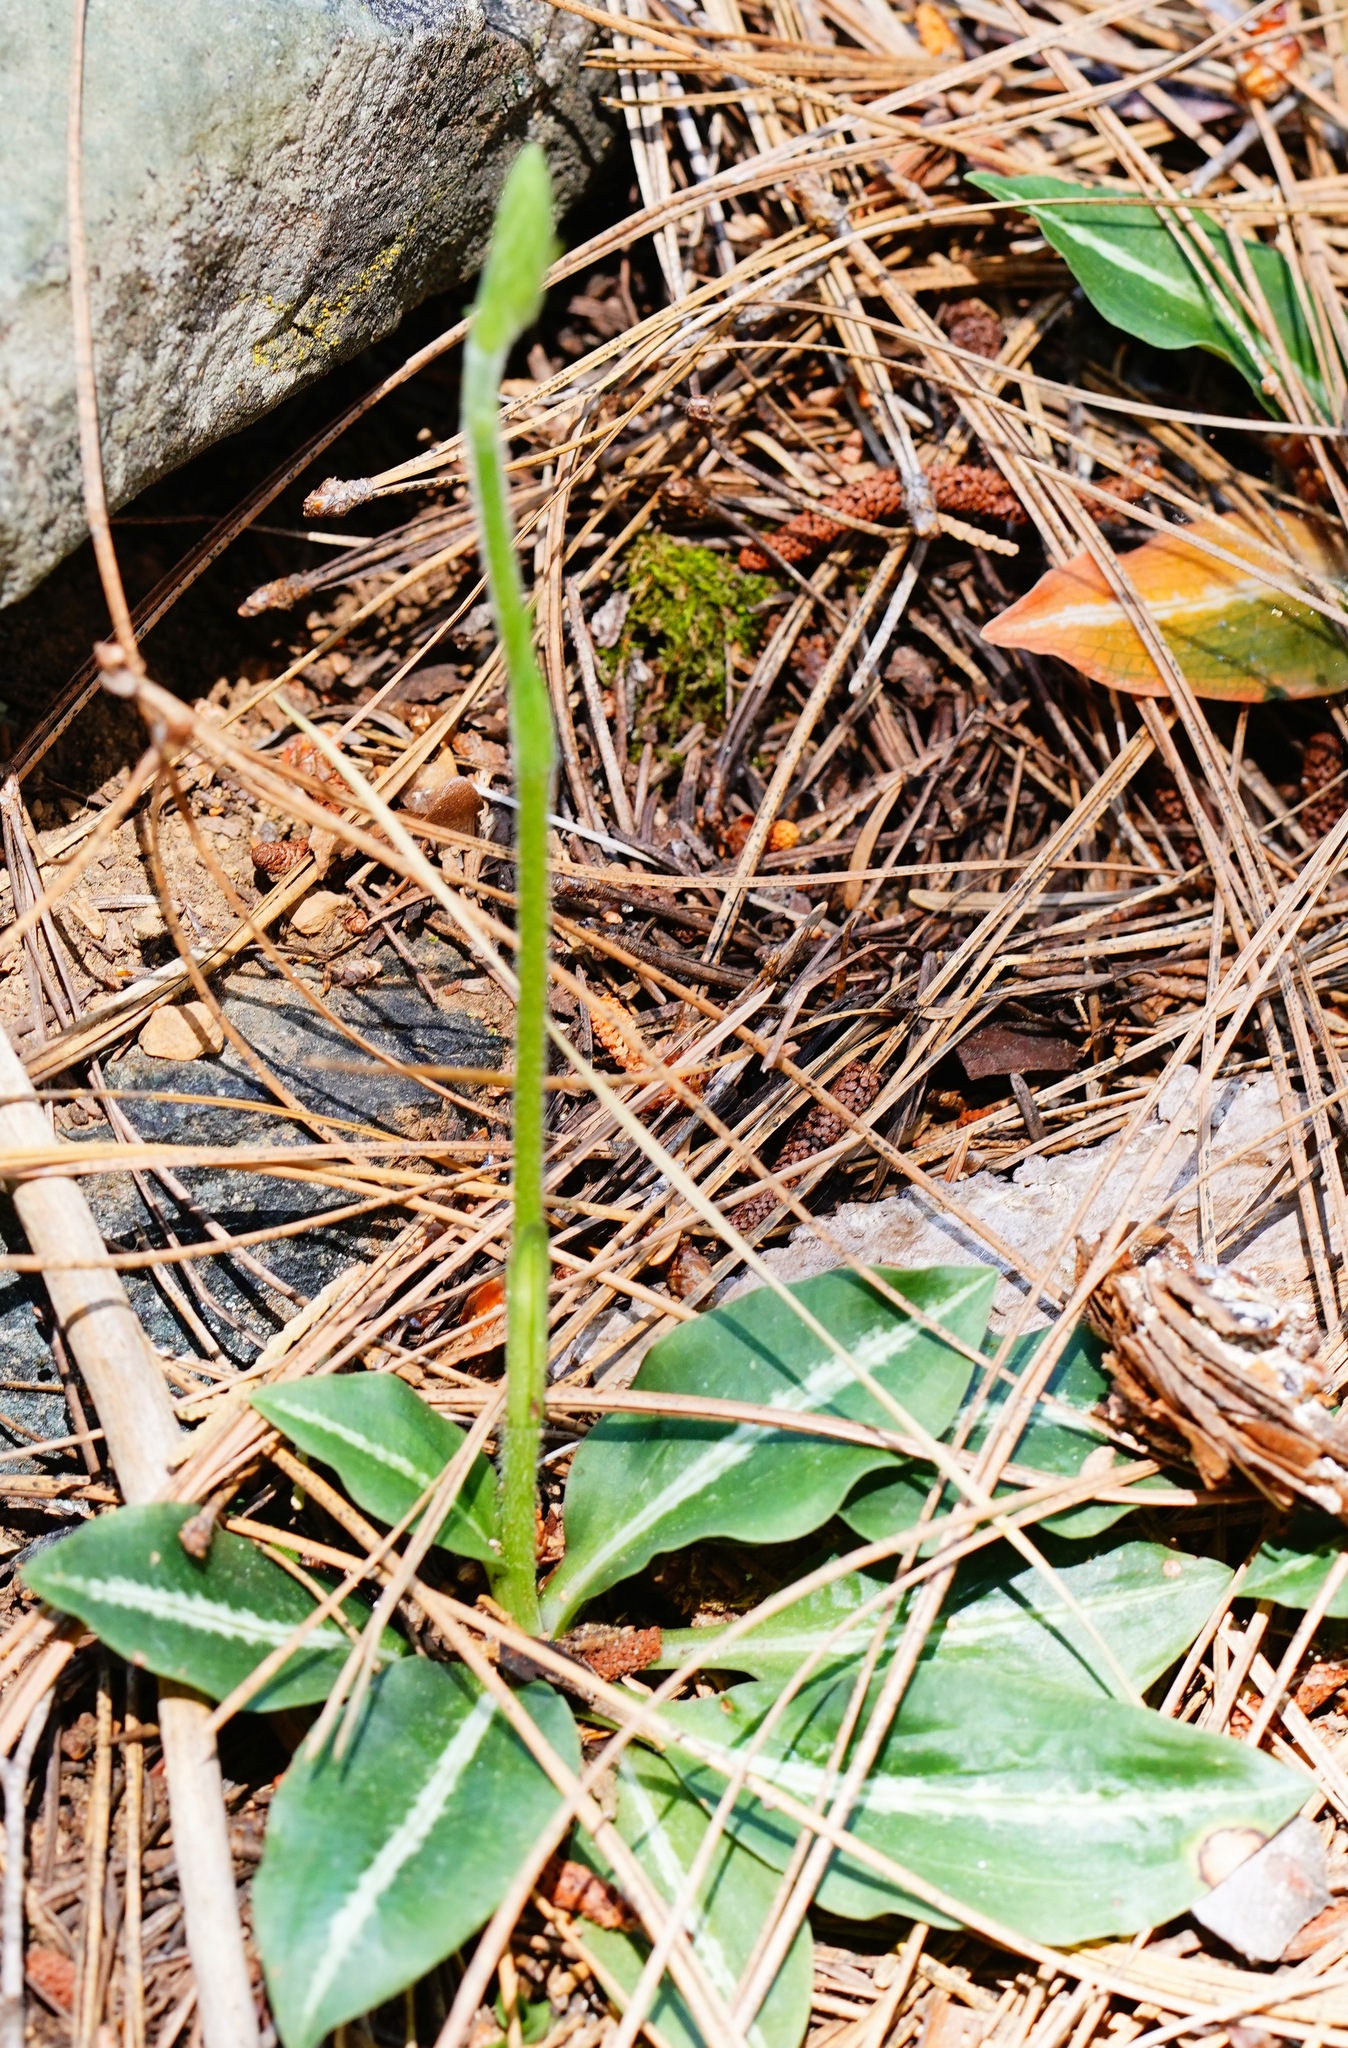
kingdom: Plantae
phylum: Tracheophyta
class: Liliopsida
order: Asparagales
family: Orchidaceae
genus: Goodyera
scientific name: Goodyera oblongifolia
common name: Giant rattlesnake-plantain
